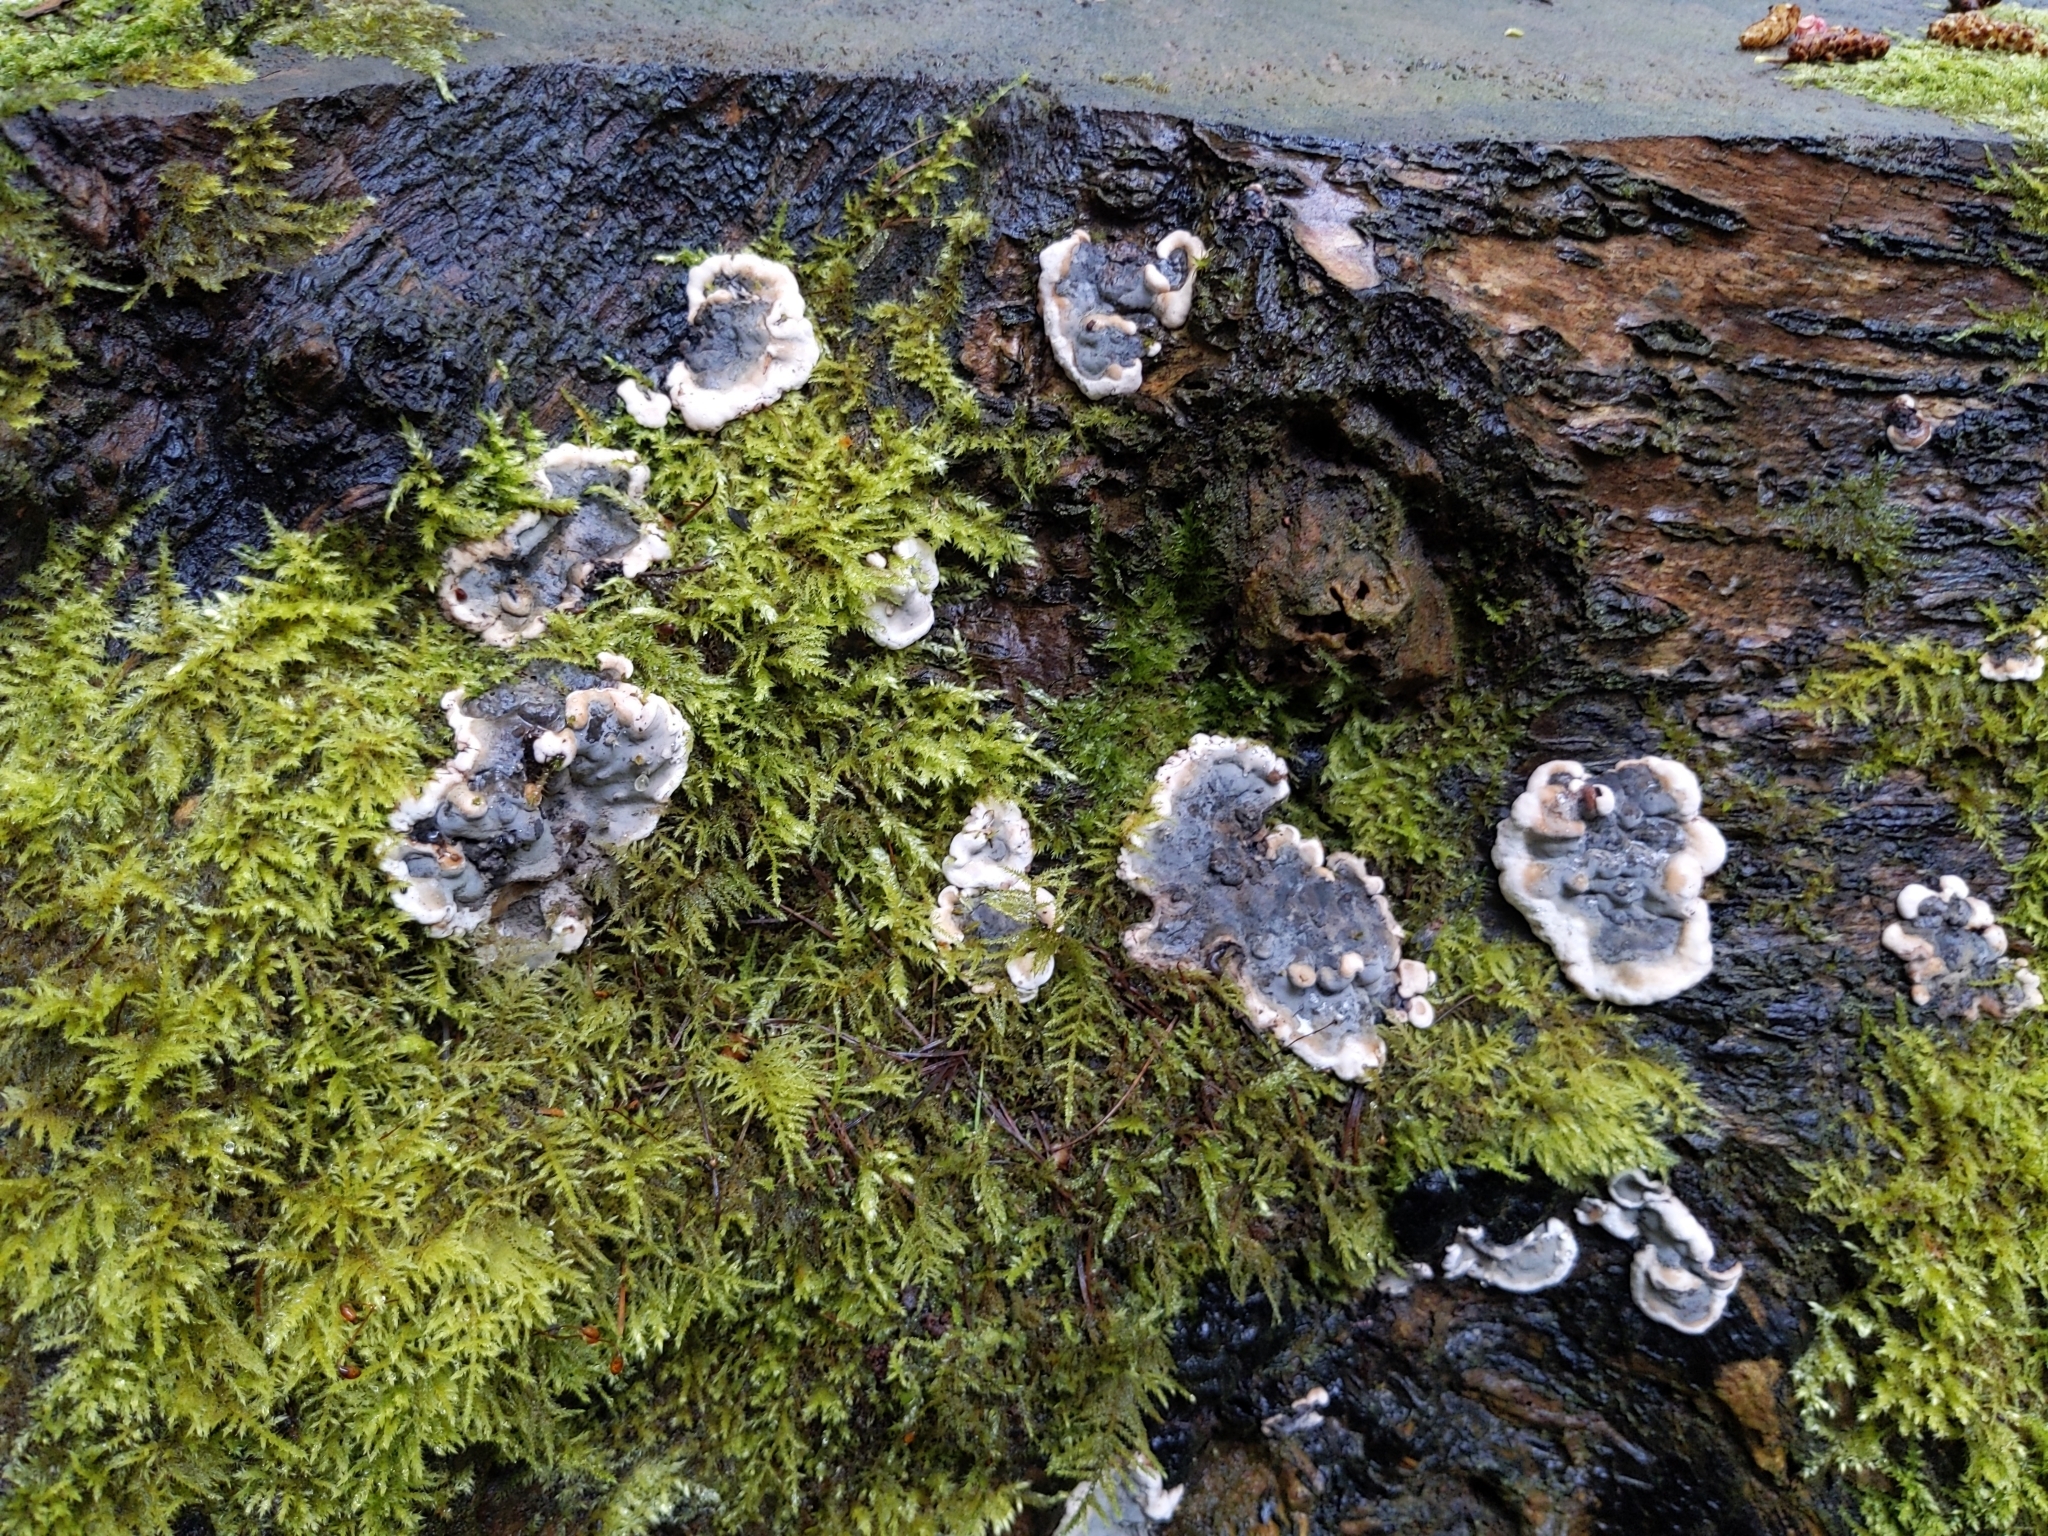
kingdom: Fungi
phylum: Ascomycota
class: Sordariomycetes
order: Xylariales
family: Xylariaceae
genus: Kretzschmaria
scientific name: Kretzschmaria deusta
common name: Brittle cinder
